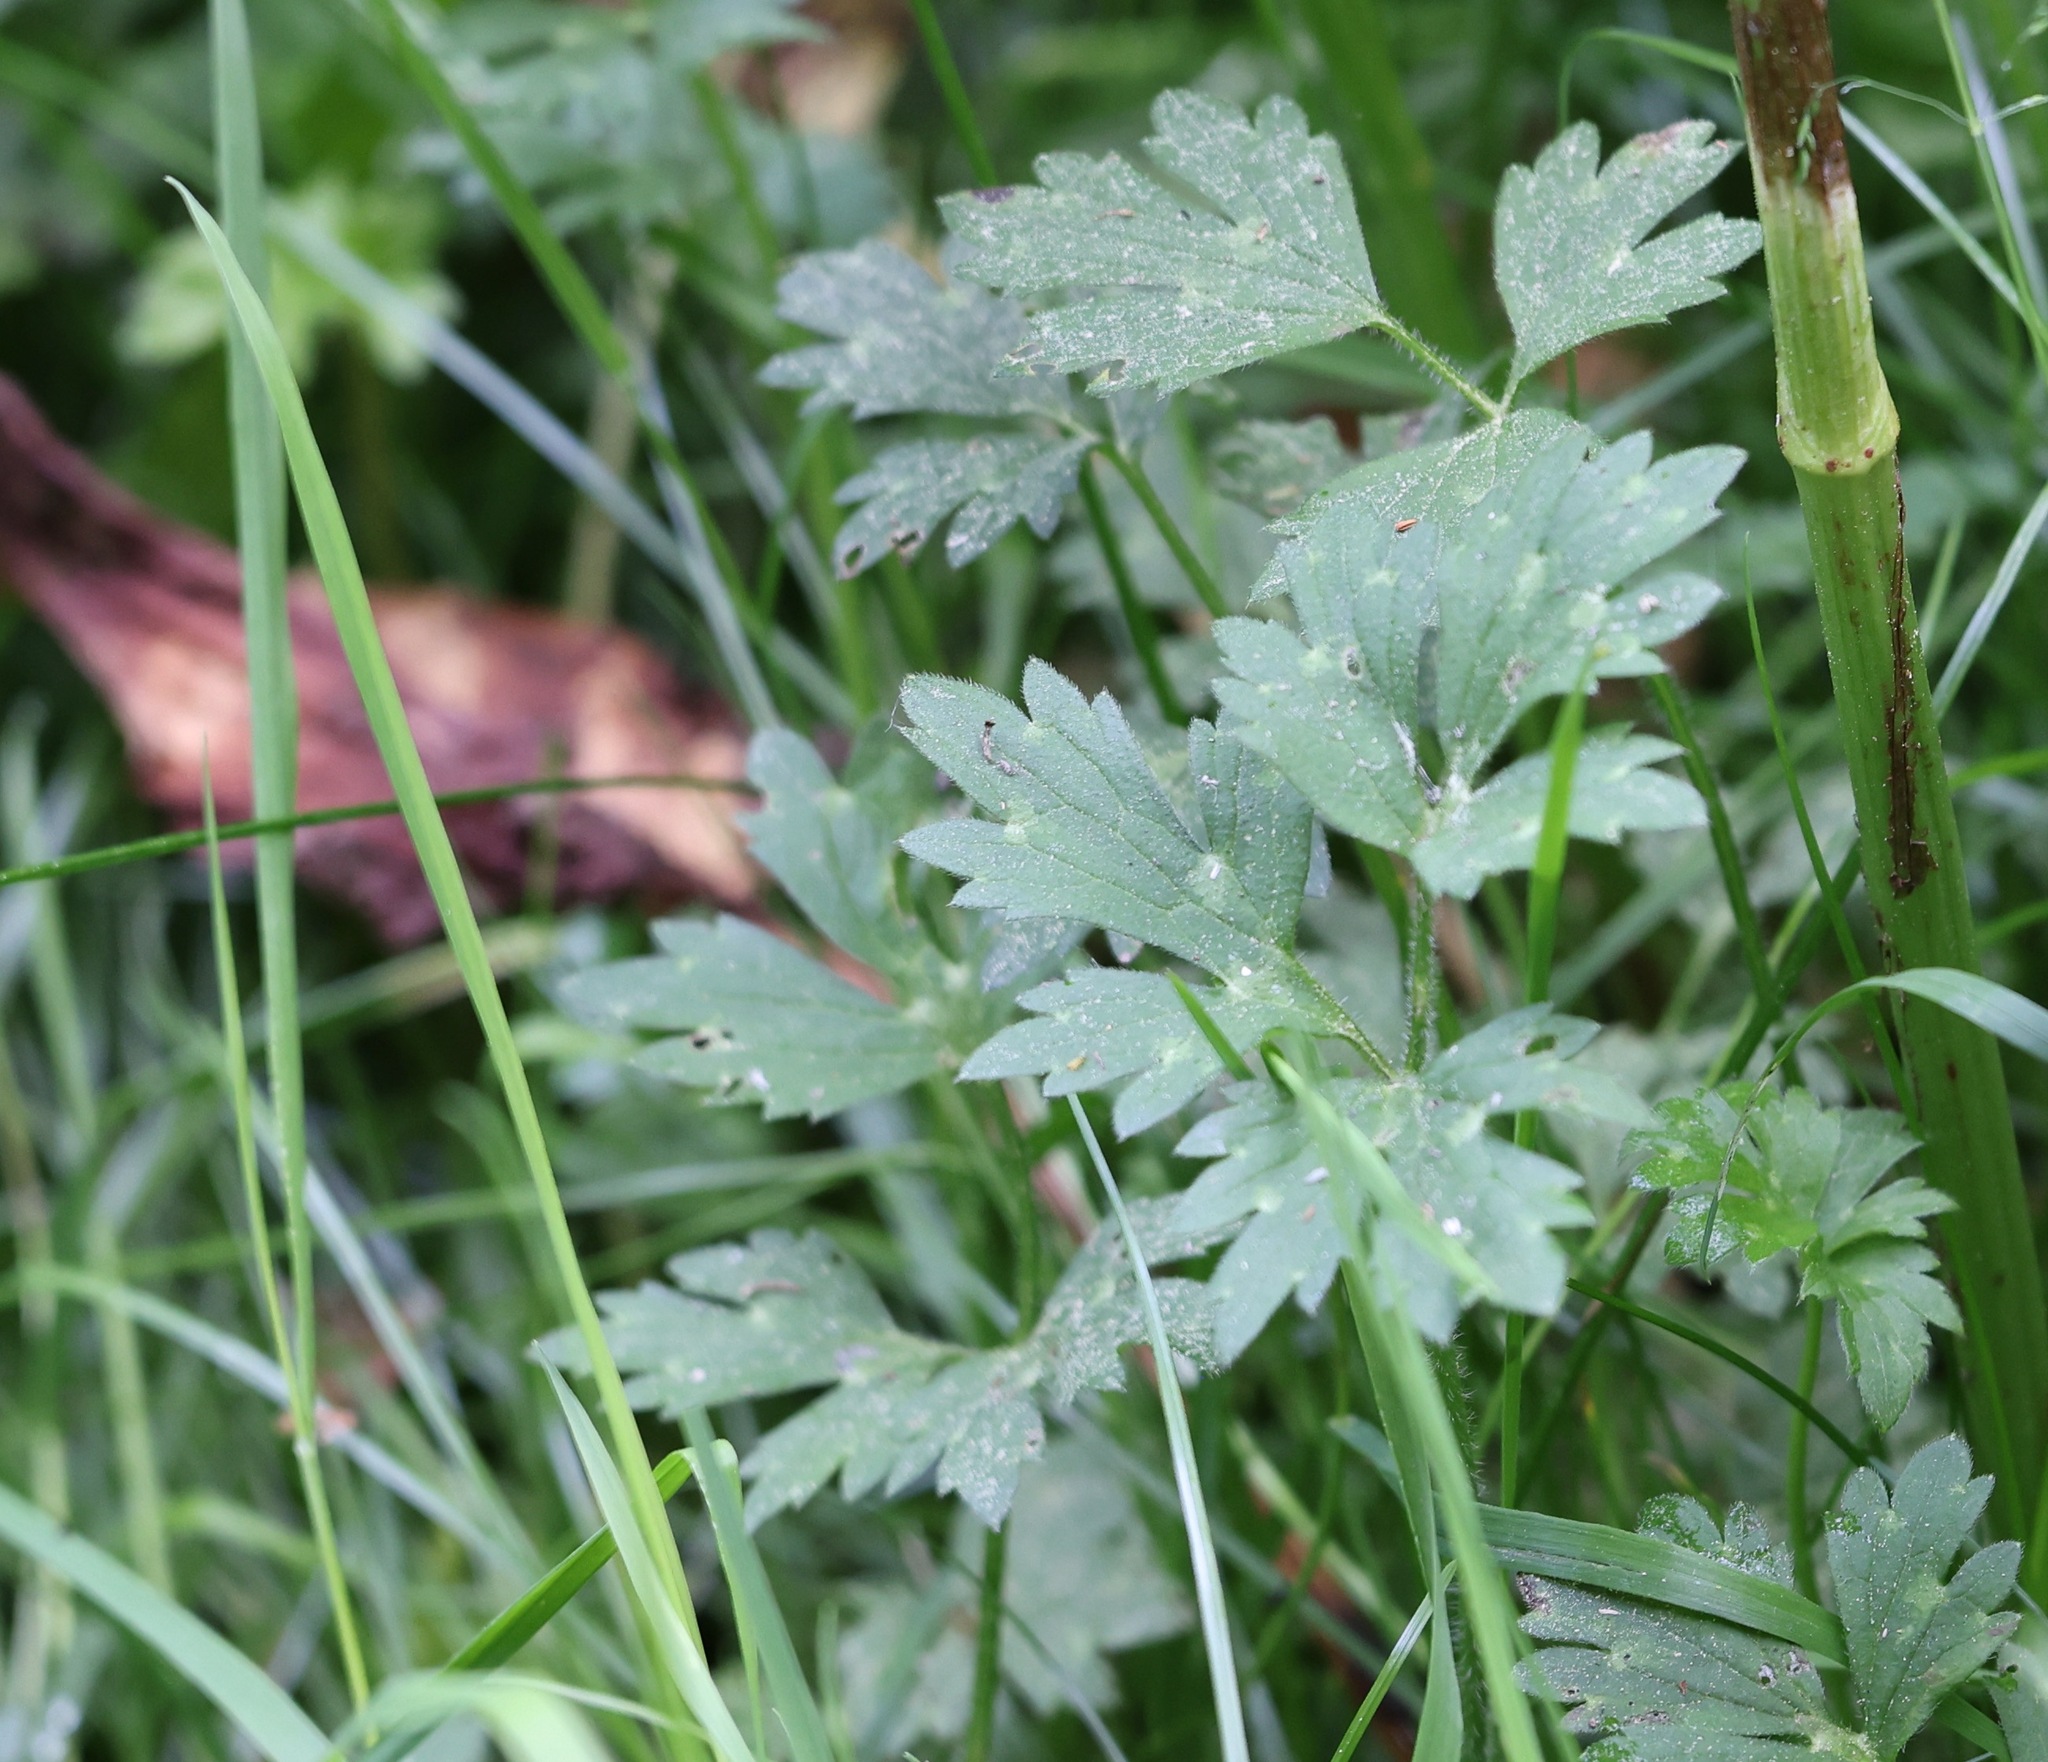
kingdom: Plantae
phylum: Tracheophyta
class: Magnoliopsida
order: Ranunculales
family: Ranunculaceae
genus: Ranunculus
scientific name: Ranunculus repens
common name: Creeping buttercup
